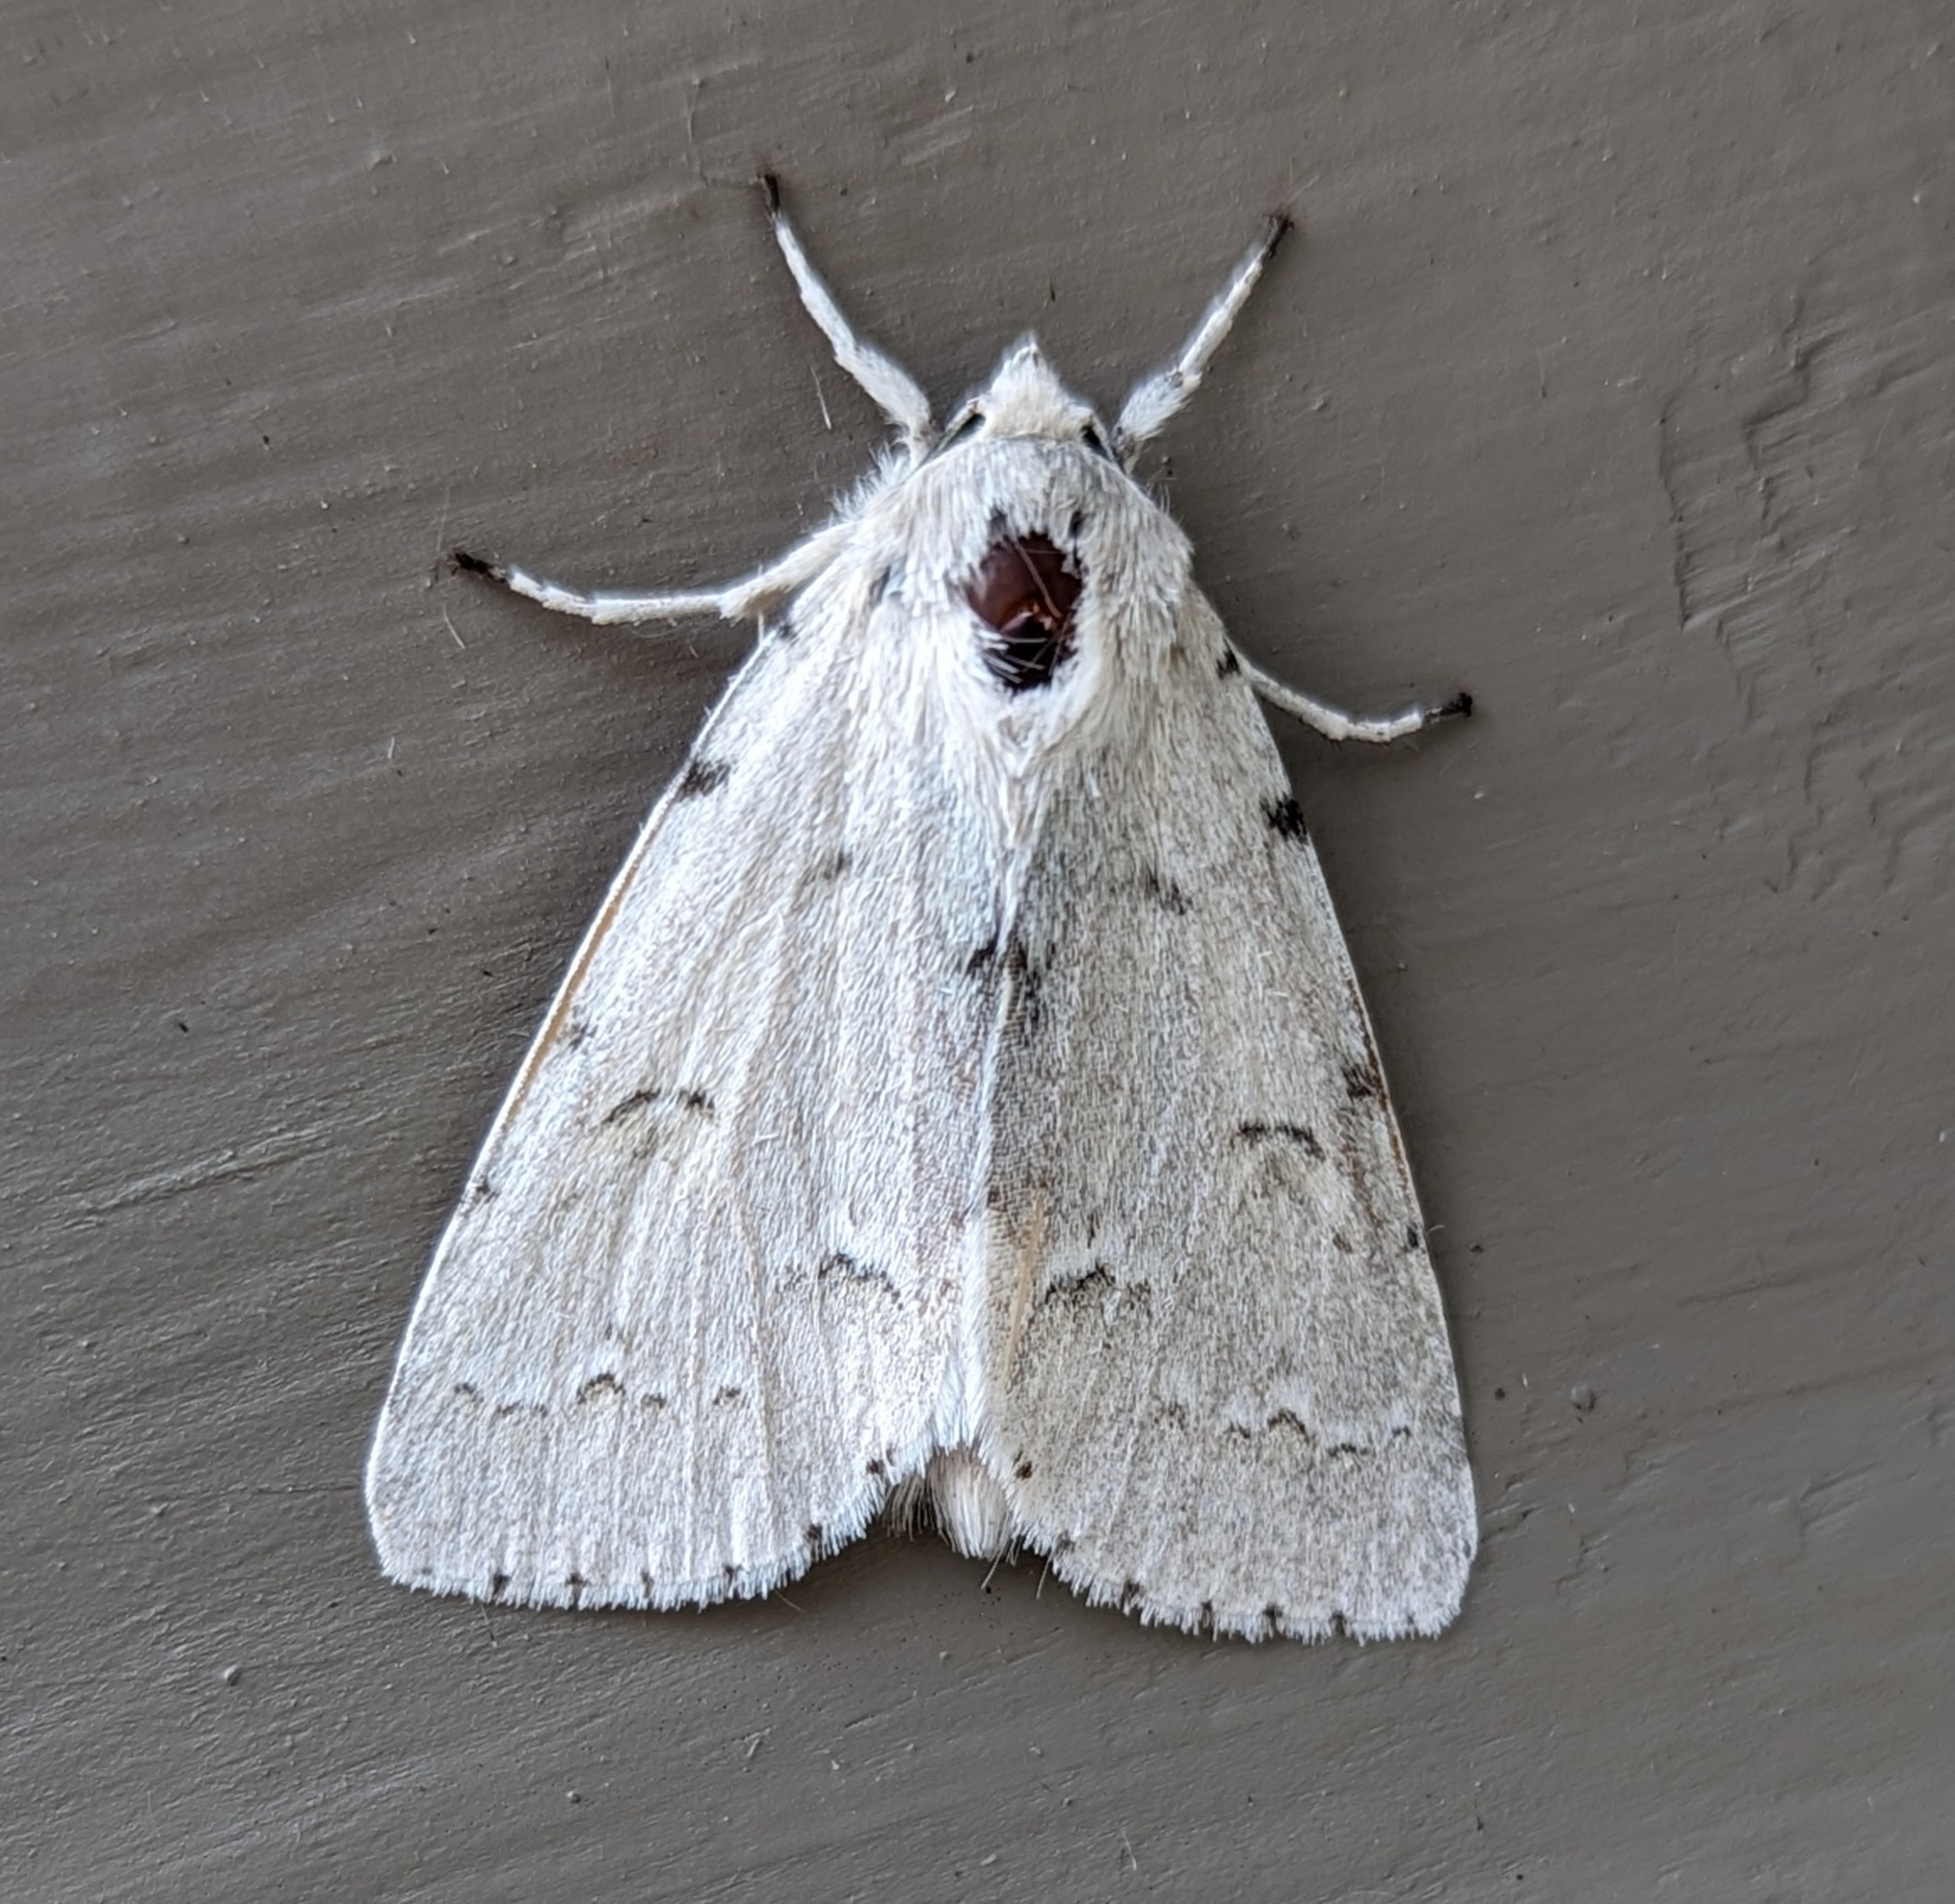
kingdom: Animalia
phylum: Arthropoda
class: Insecta
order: Lepidoptera
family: Noctuidae
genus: Acronicta
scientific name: Acronicta innotata
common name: Unmarked dagger
